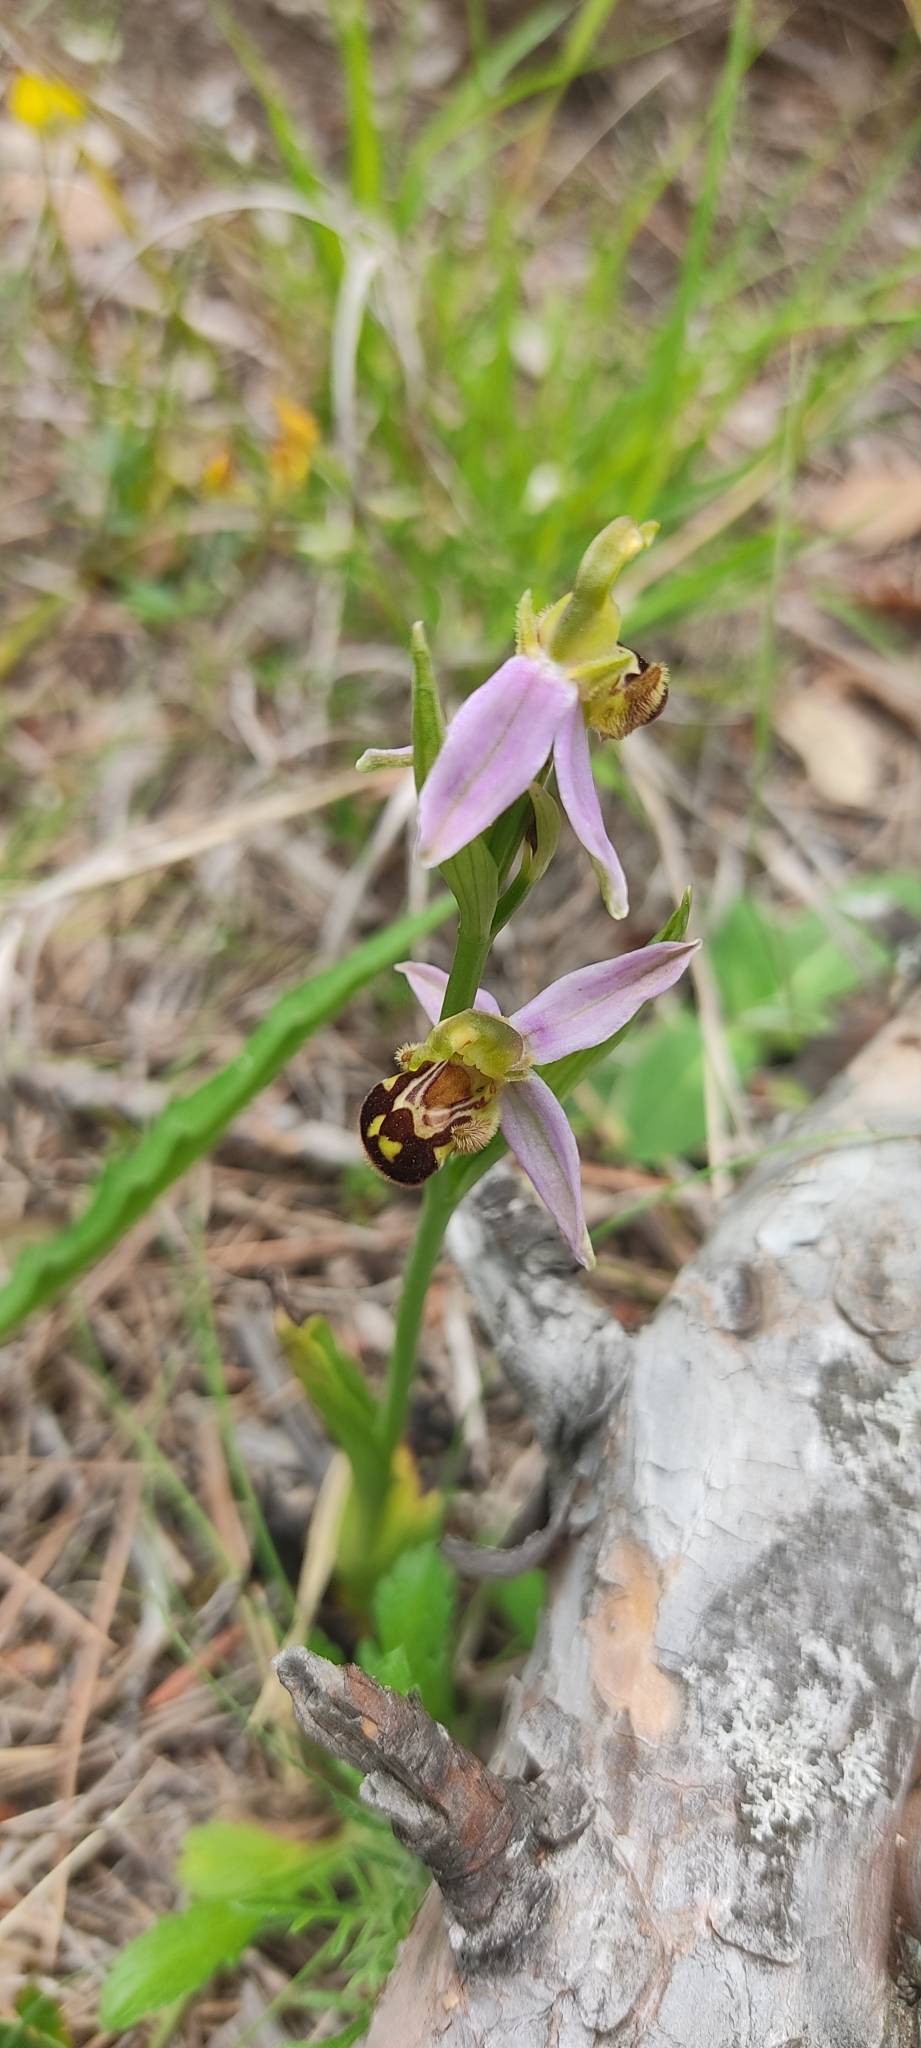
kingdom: Plantae
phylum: Tracheophyta
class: Liliopsida
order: Asparagales
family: Orchidaceae
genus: Ophrys
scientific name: Ophrys apifera
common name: Bee orchid
